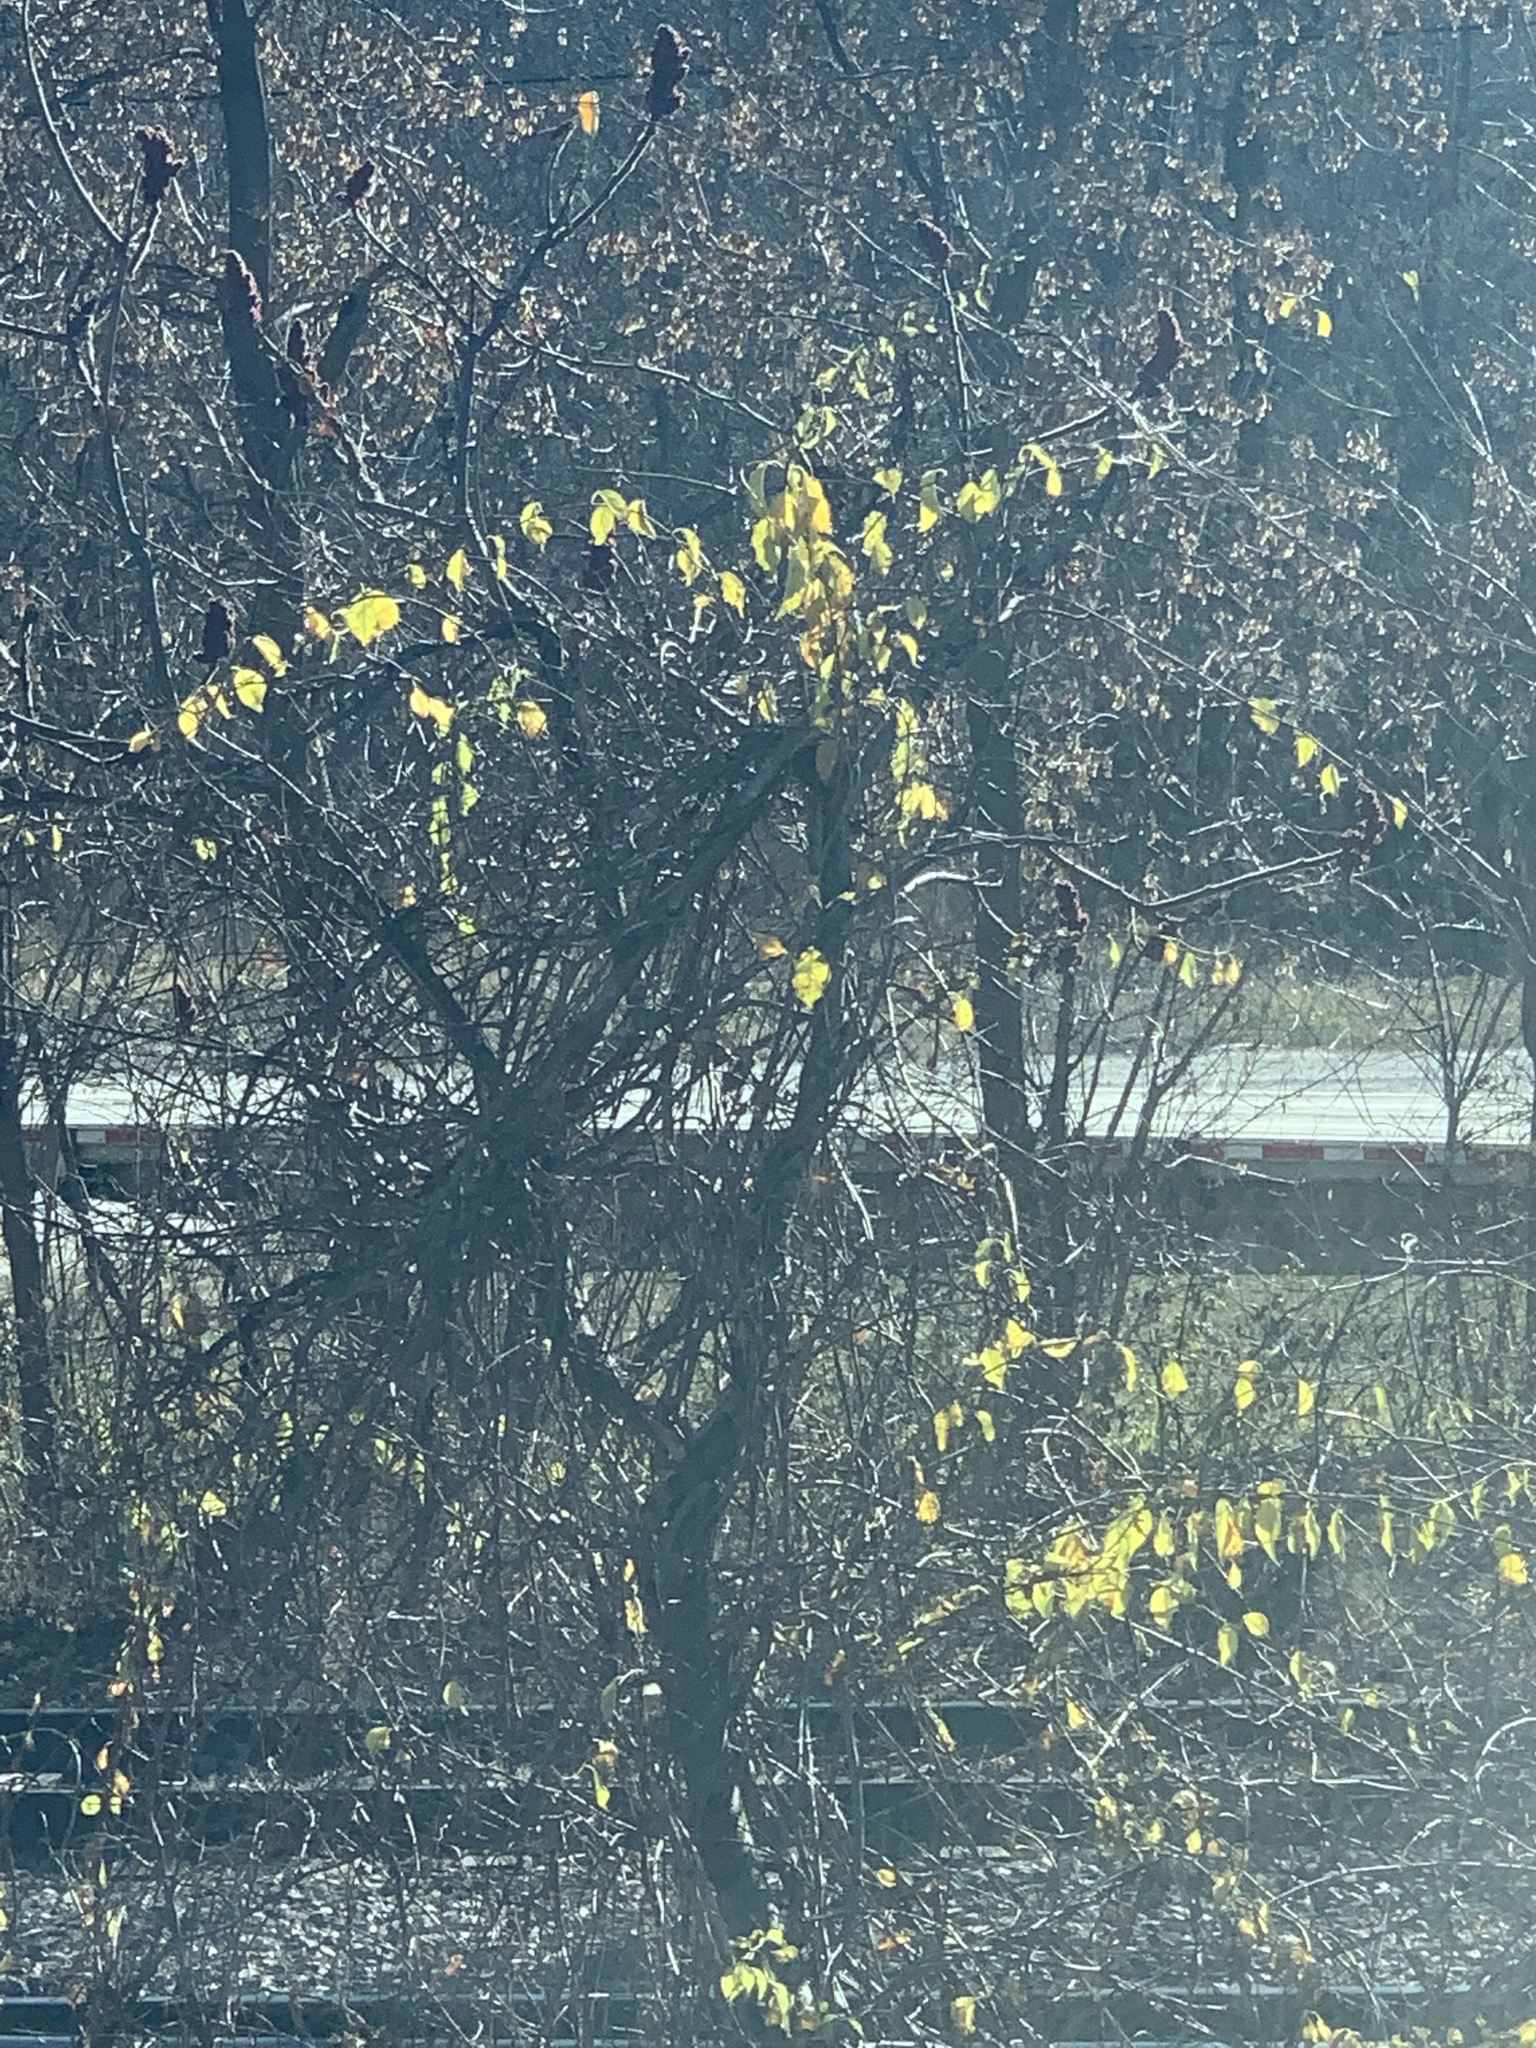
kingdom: Plantae
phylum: Tracheophyta
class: Magnoliopsida
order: Celastrales
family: Celastraceae
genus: Celastrus
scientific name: Celastrus orbiculatus
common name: Oriental bittersweet
